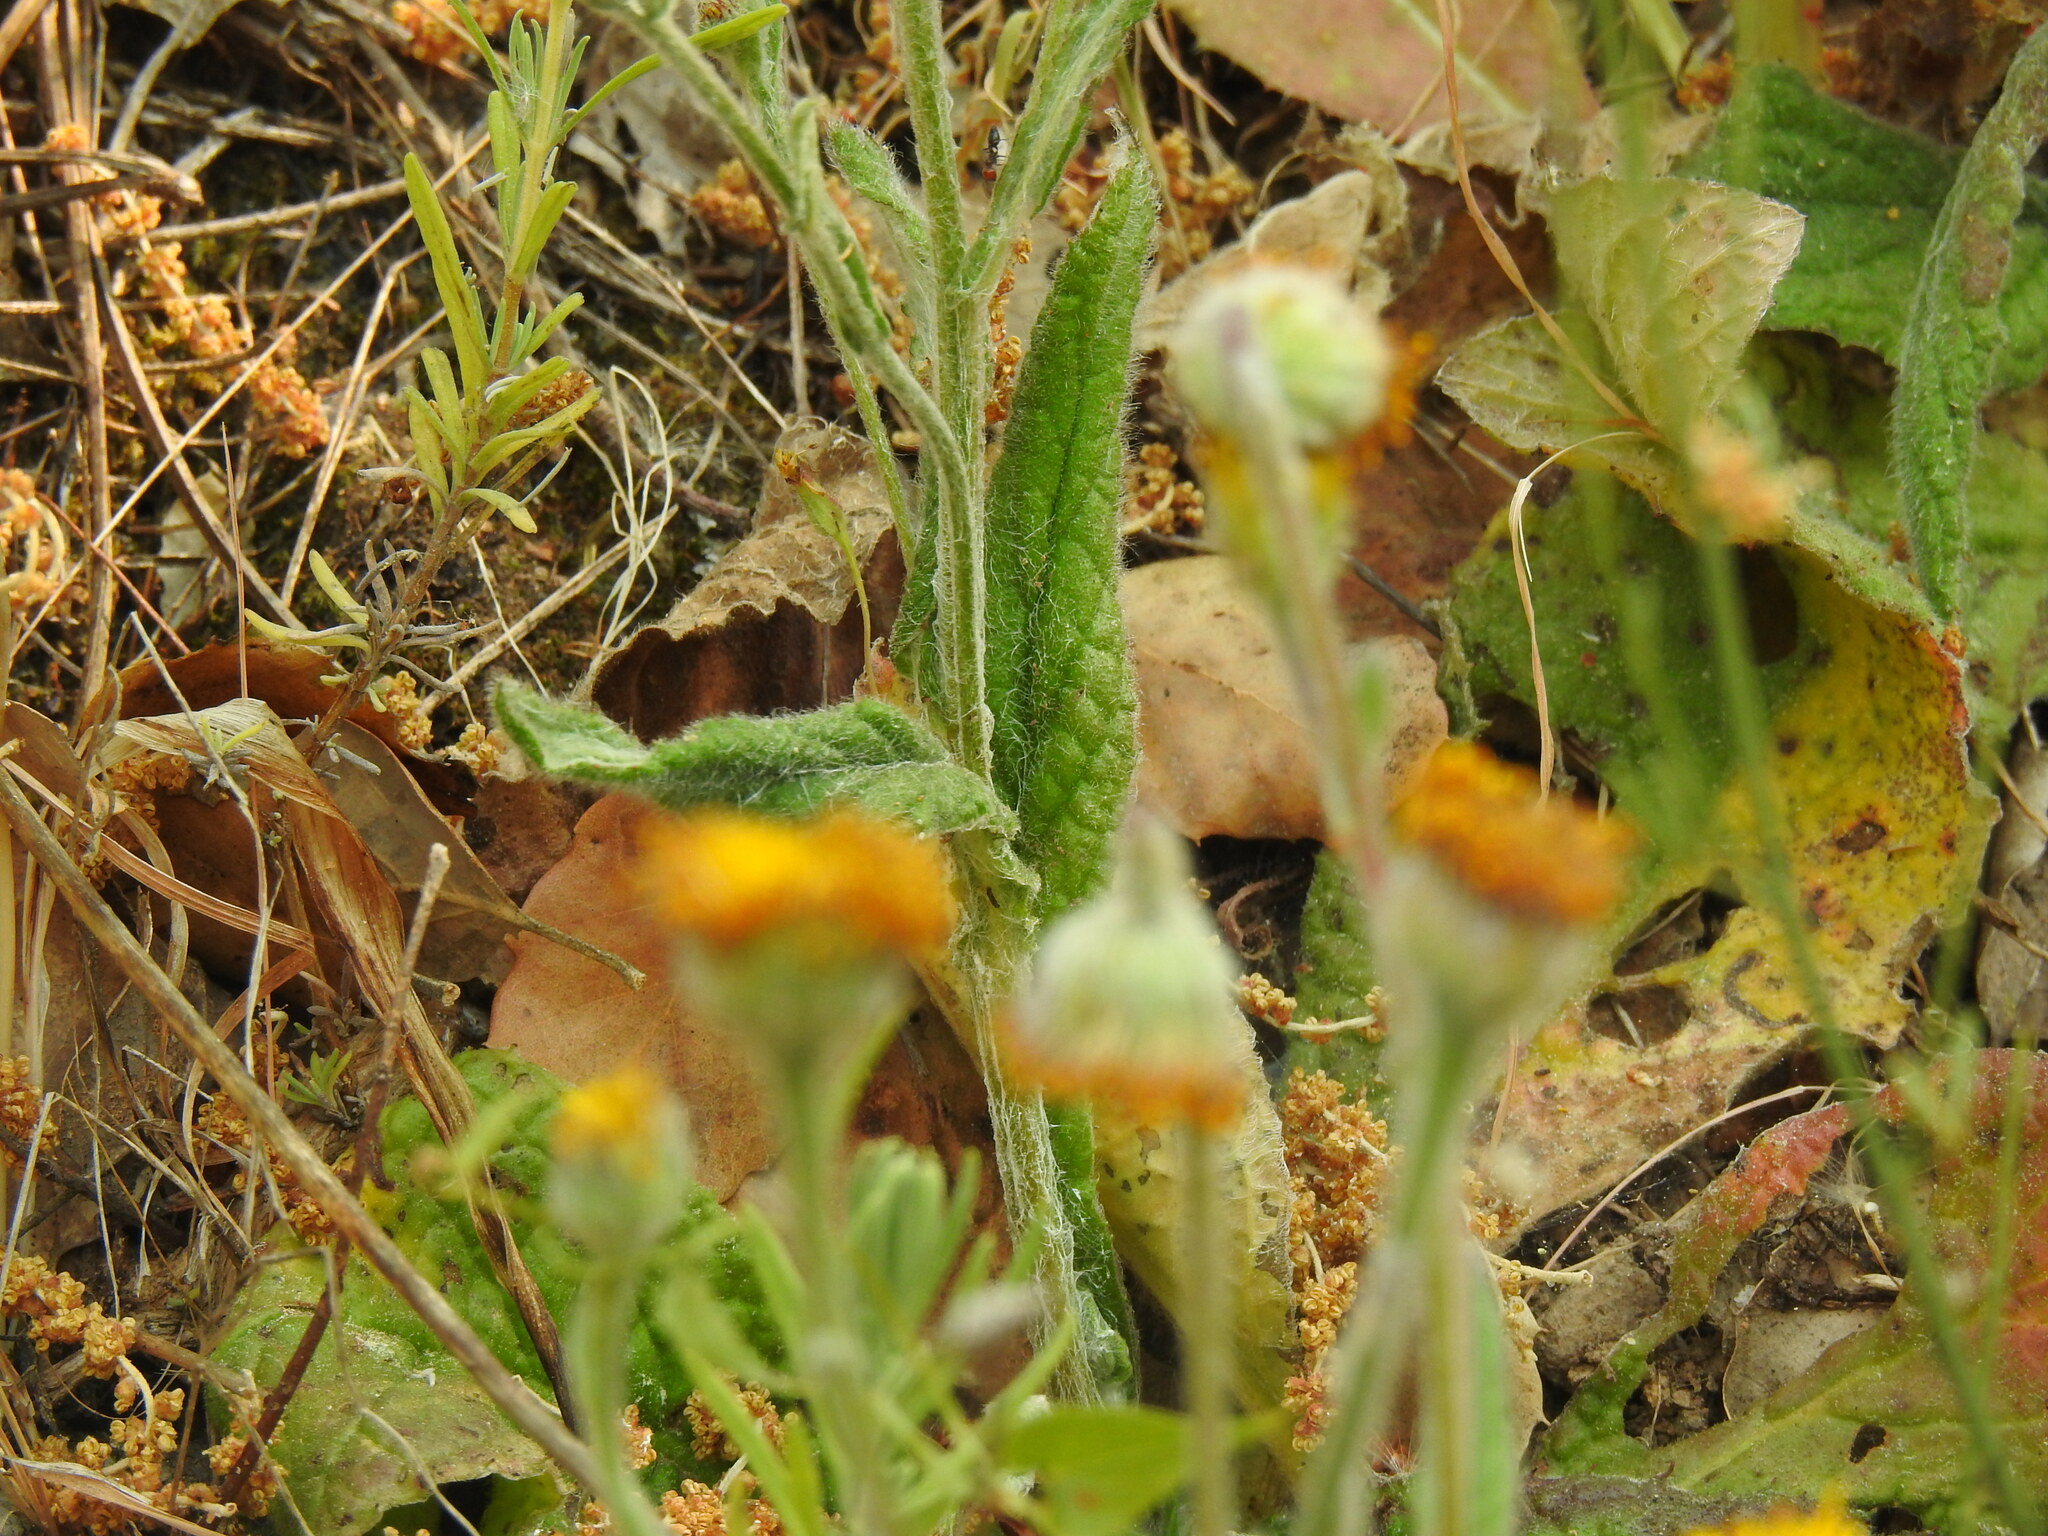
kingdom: Plantae
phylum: Tracheophyta
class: Magnoliopsida
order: Asterales
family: Asteraceae
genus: Pulicaria
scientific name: Pulicaria odora
